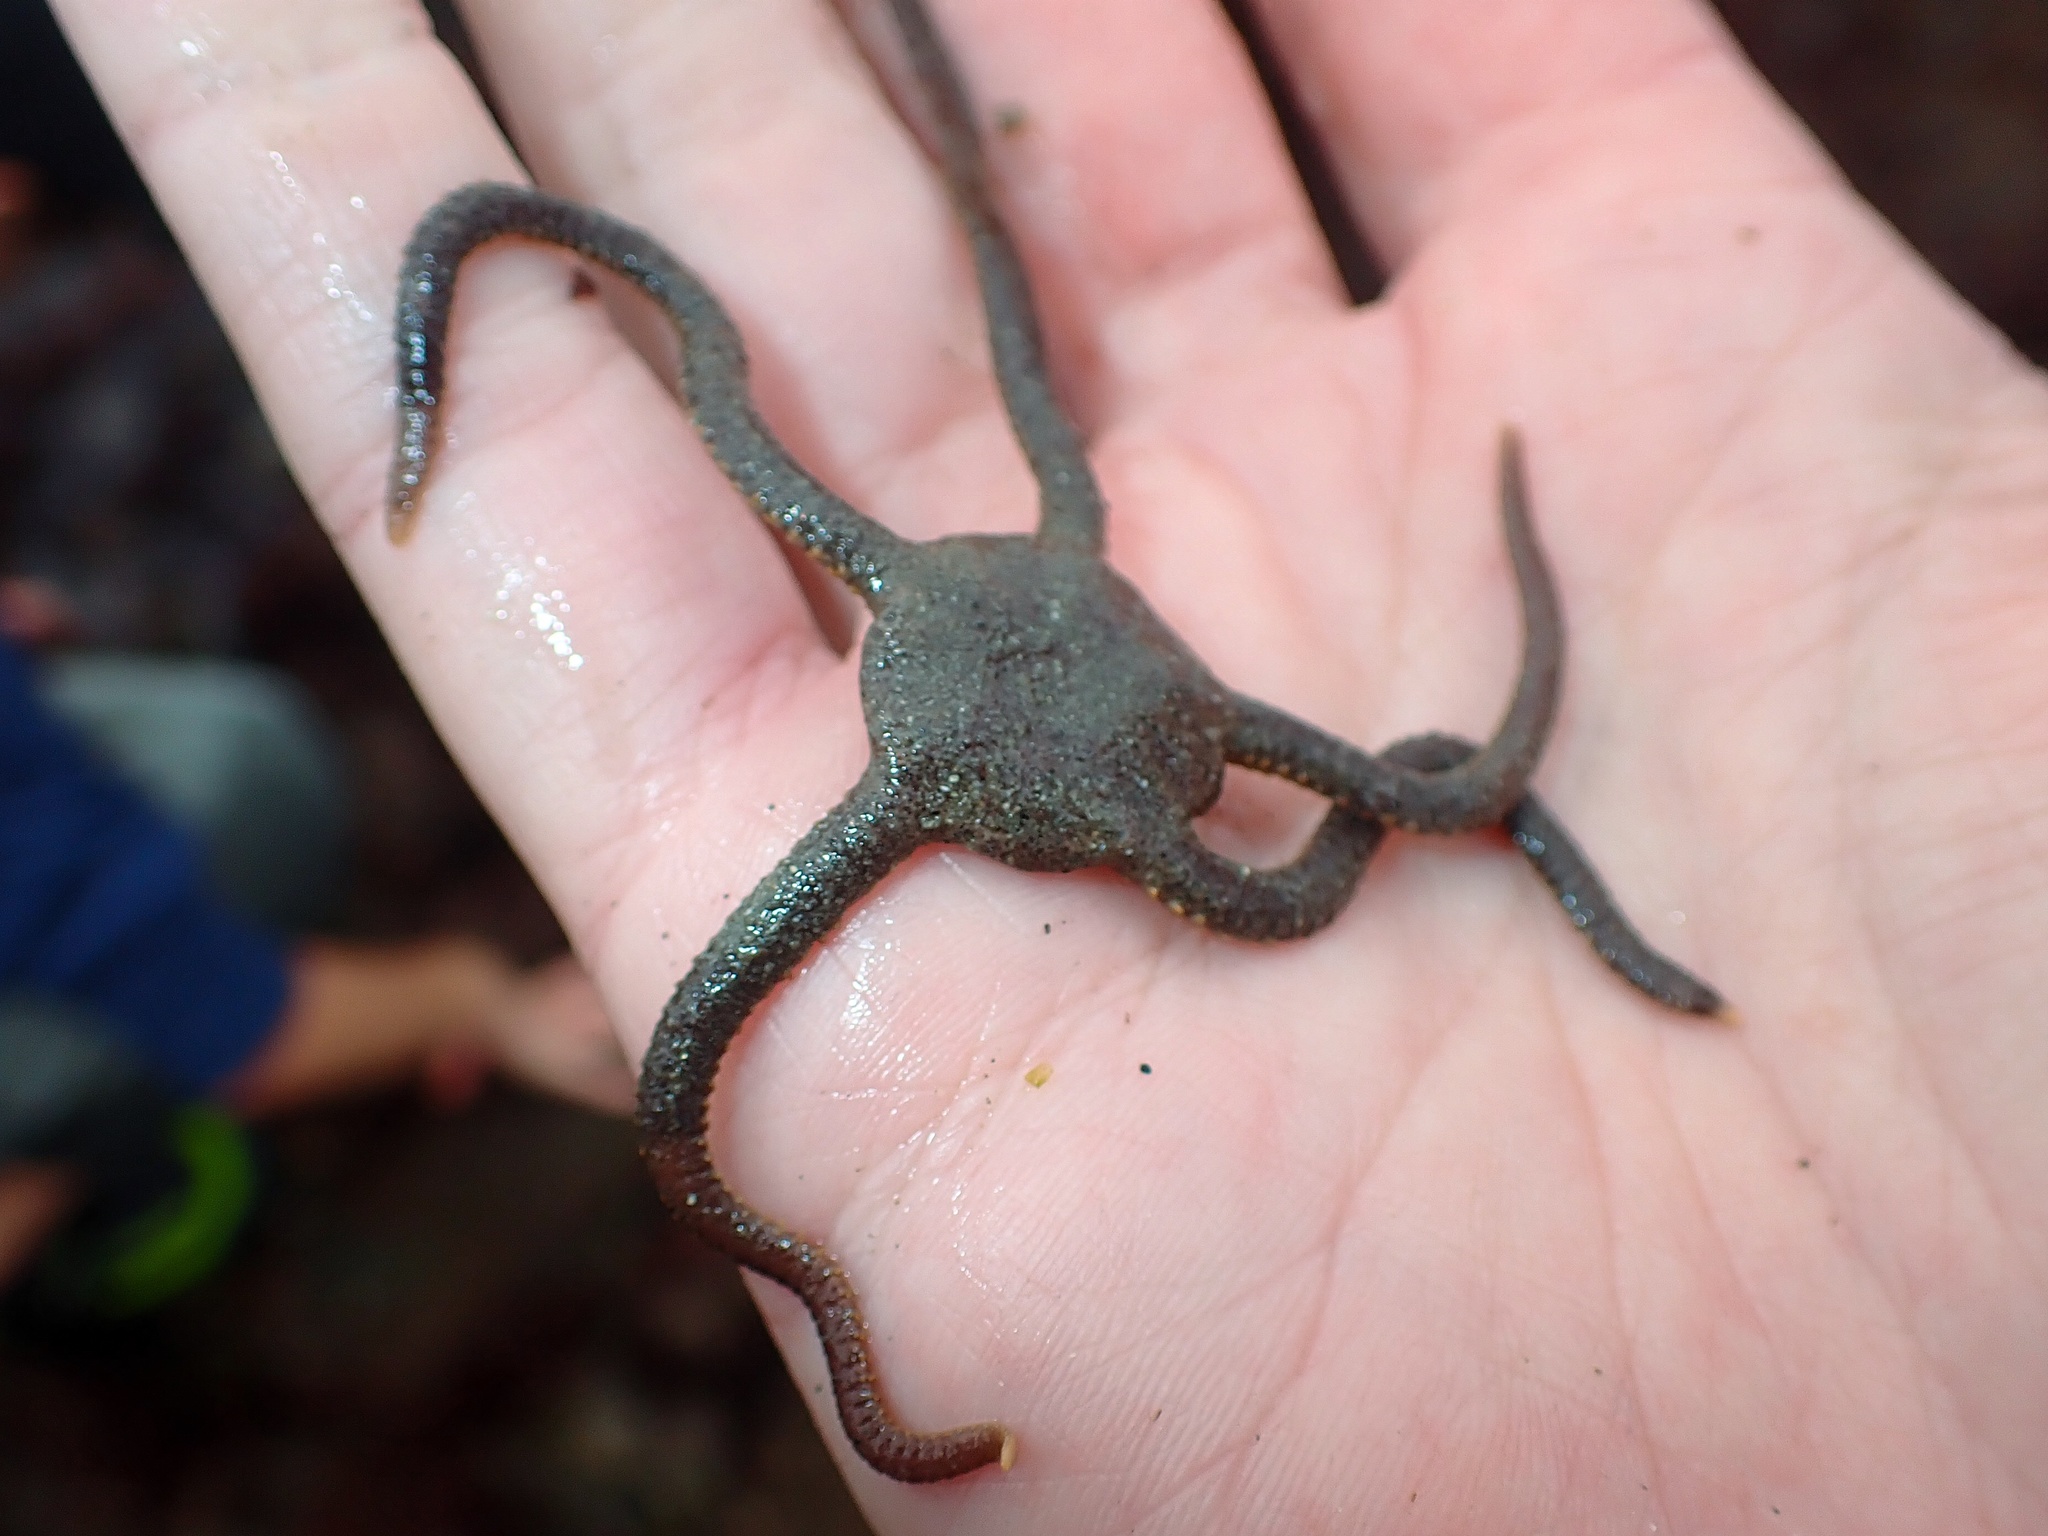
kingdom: Animalia
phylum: Echinodermata
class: Ophiuroidea
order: Amphilepidida
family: Hemieuryalidae
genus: Ophioplocus
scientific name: Ophioplocus esmarki
